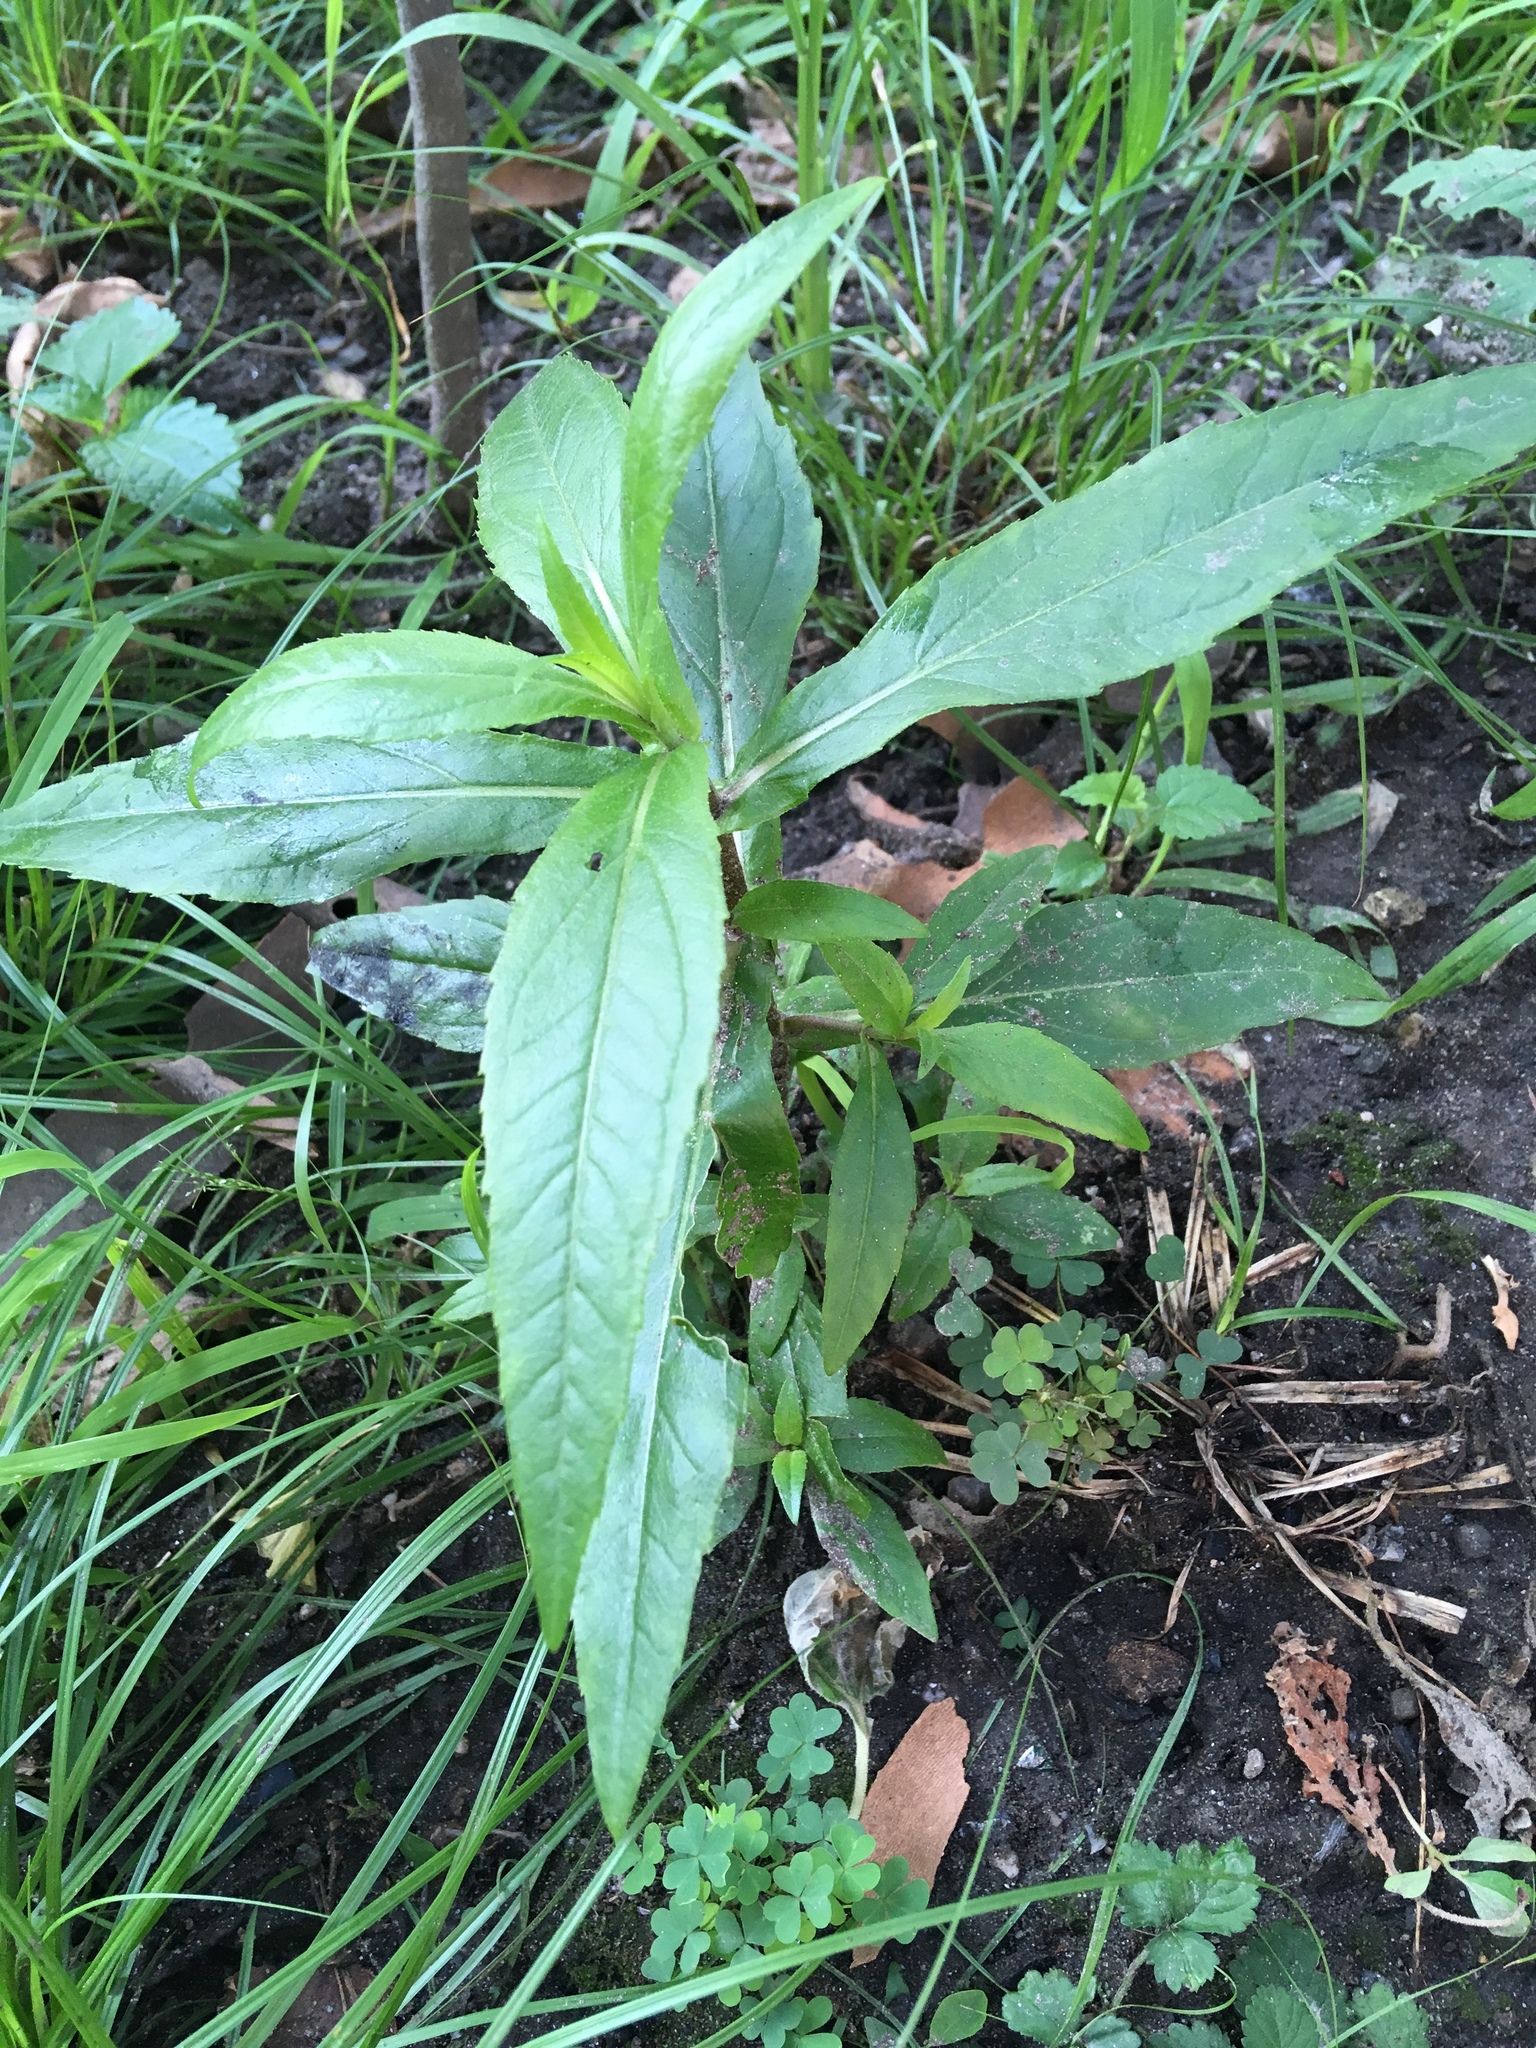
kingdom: Plantae
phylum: Tracheophyta
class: Magnoliopsida
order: Asterales
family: Asteraceae
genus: Eclipta
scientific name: Eclipta prostrata
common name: False daisy
